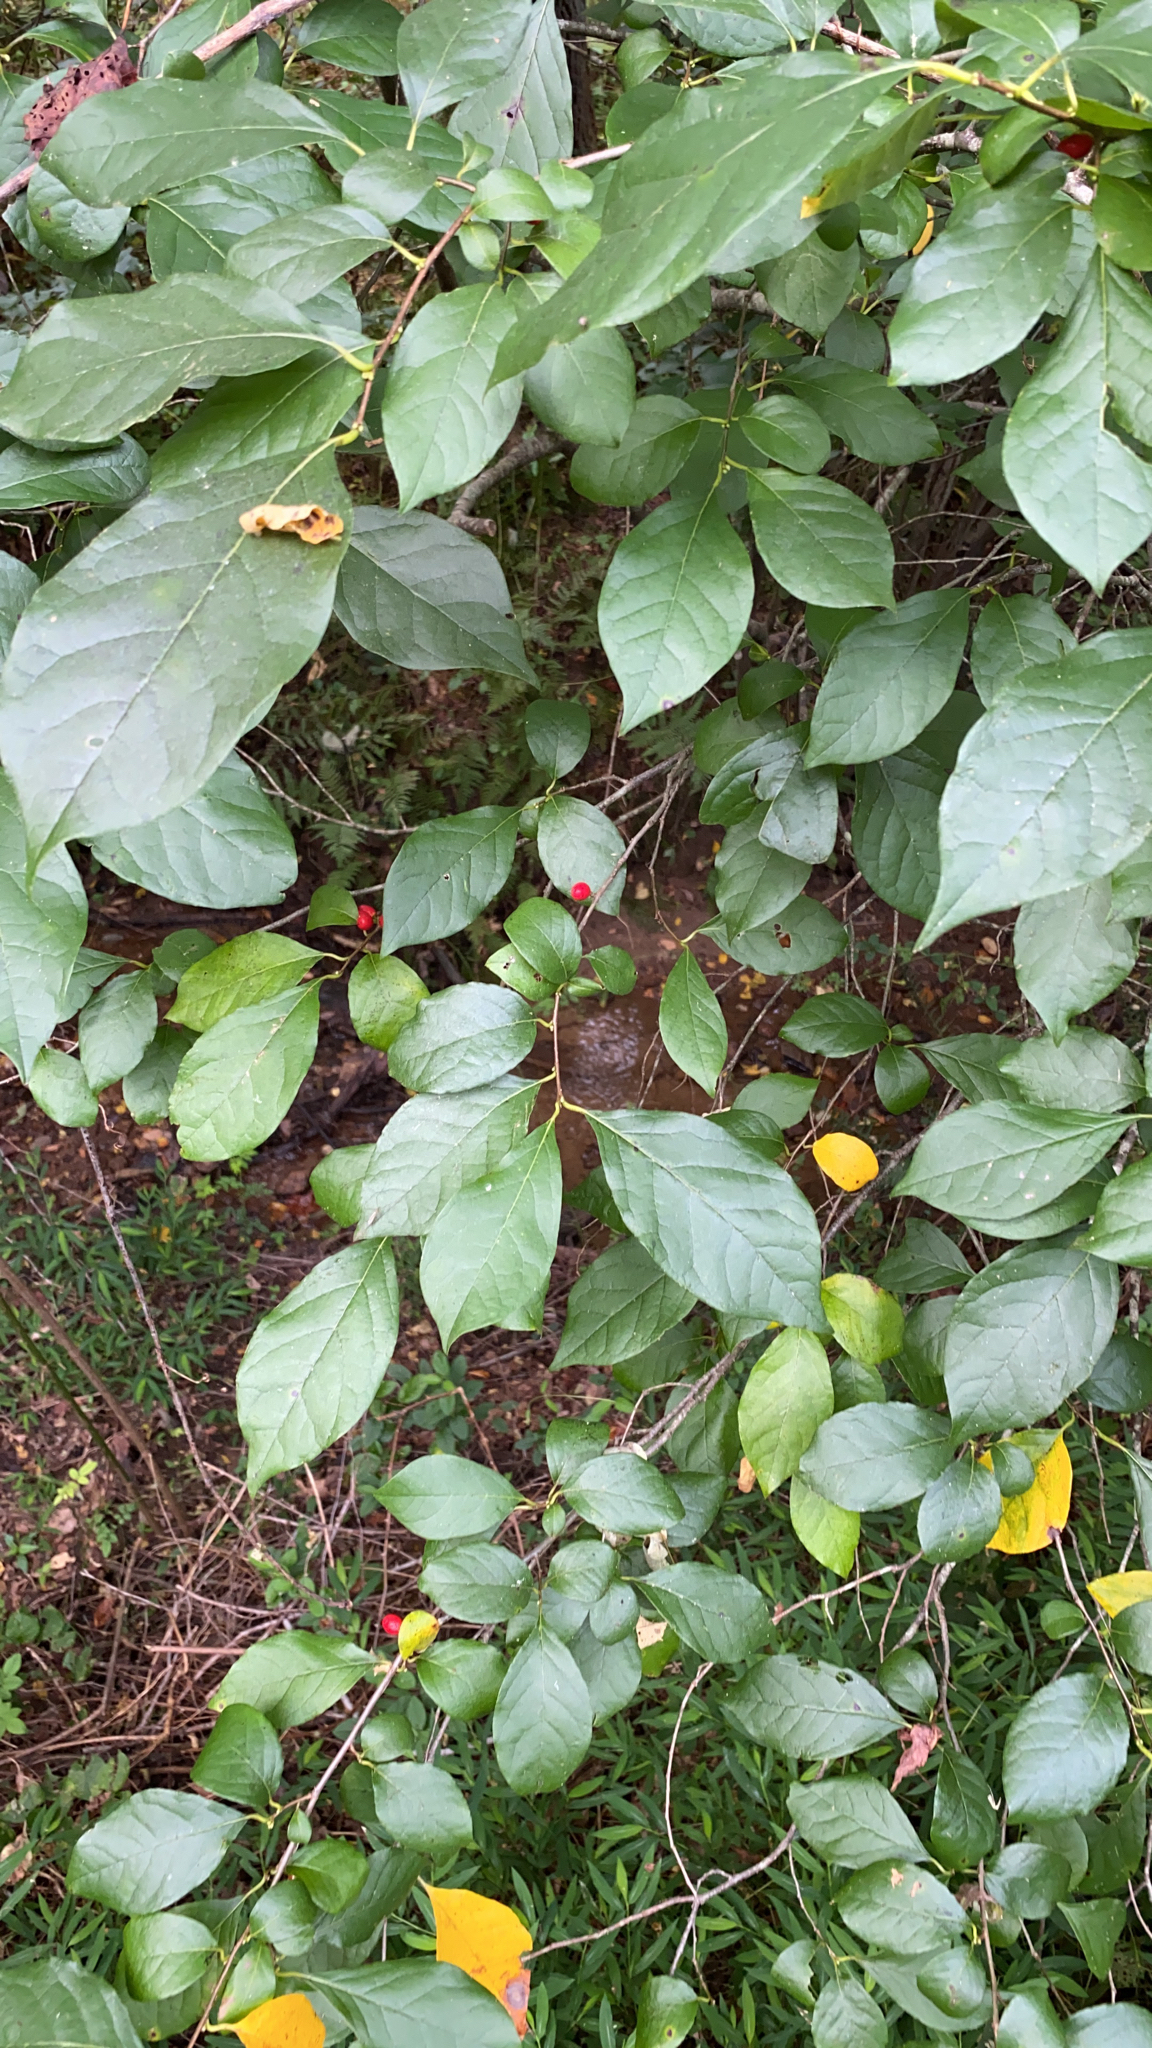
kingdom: Plantae
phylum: Tracheophyta
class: Magnoliopsida
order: Laurales
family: Lauraceae
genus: Lindera
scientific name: Lindera benzoin
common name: Spicebush
